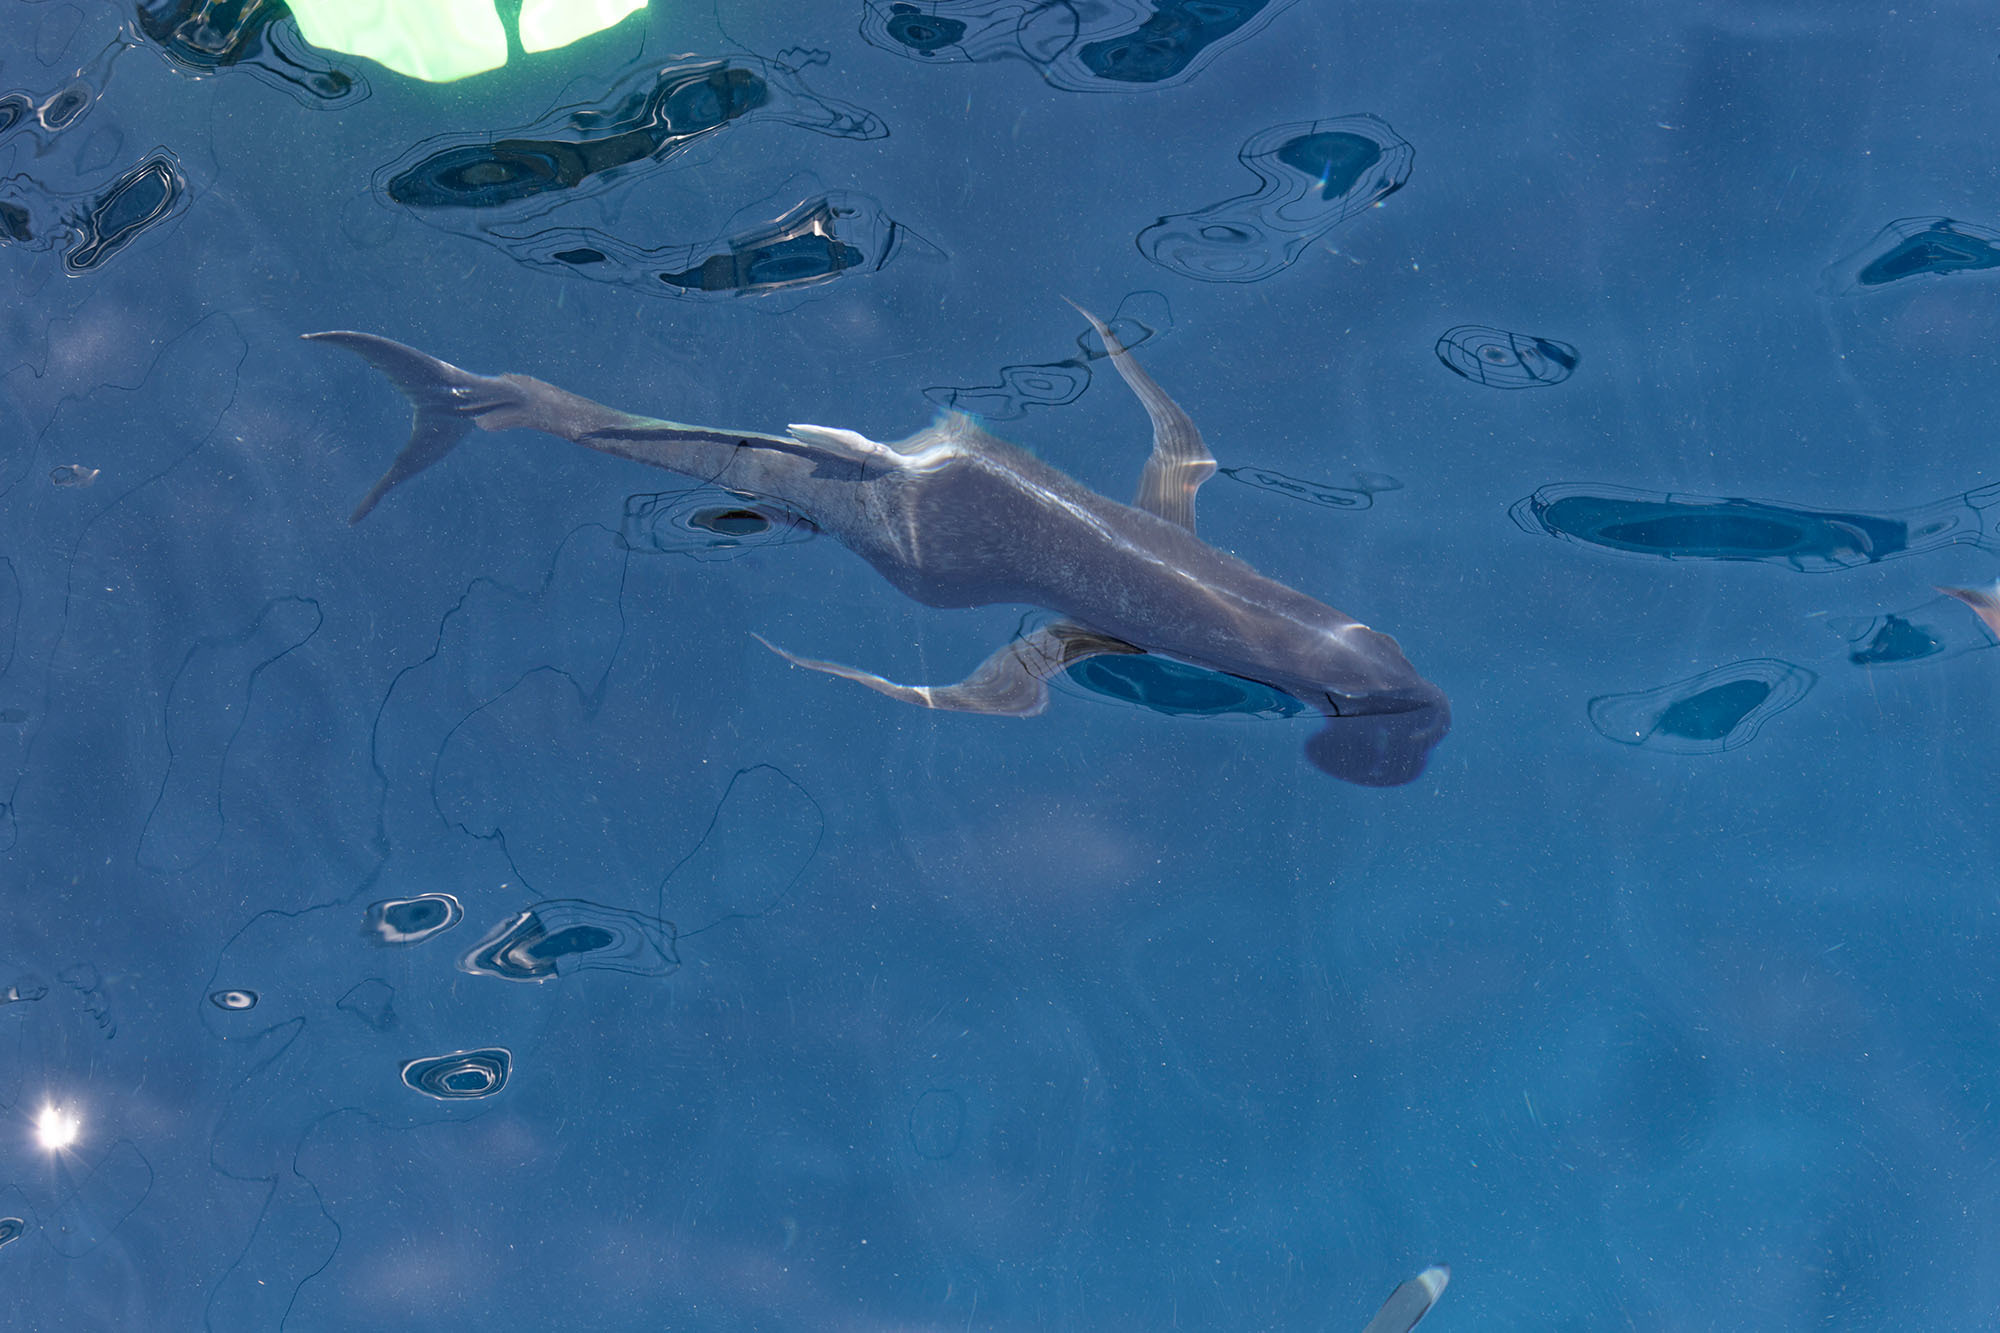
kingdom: Animalia
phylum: Chordata
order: Perciformes
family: Carangidae
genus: Caranx
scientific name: Caranx ignobilis
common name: Giant trevally
